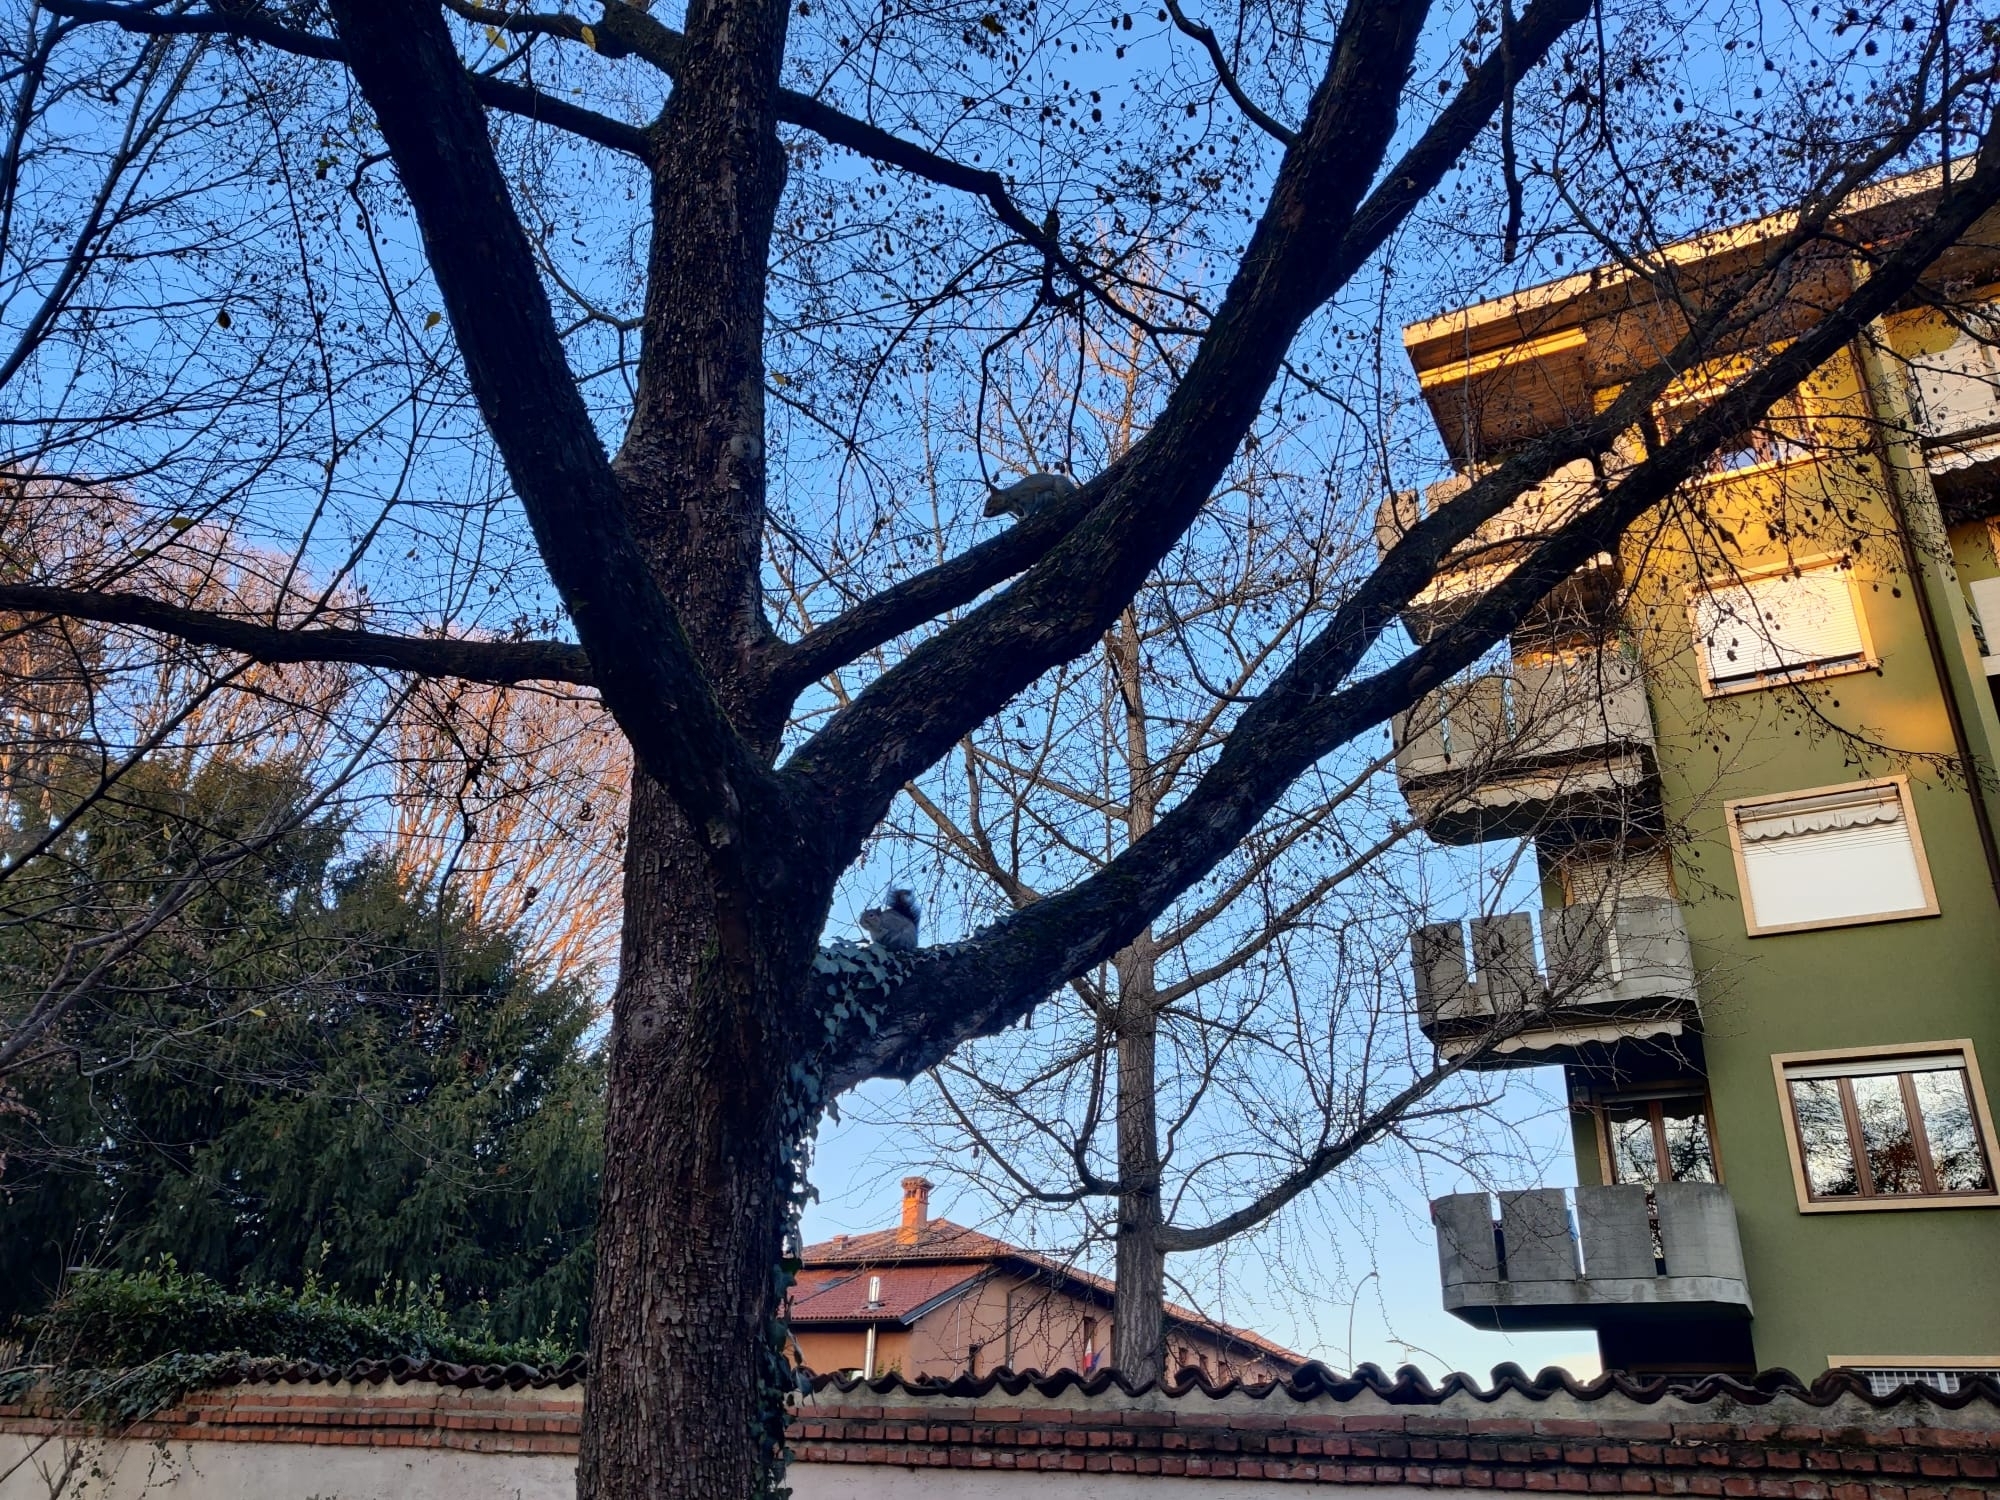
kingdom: Animalia
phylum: Chordata
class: Mammalia
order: Rodentia
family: Sciuridae
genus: Sciurus
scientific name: Sciurus carolinensis
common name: Eastern gray squirrel
